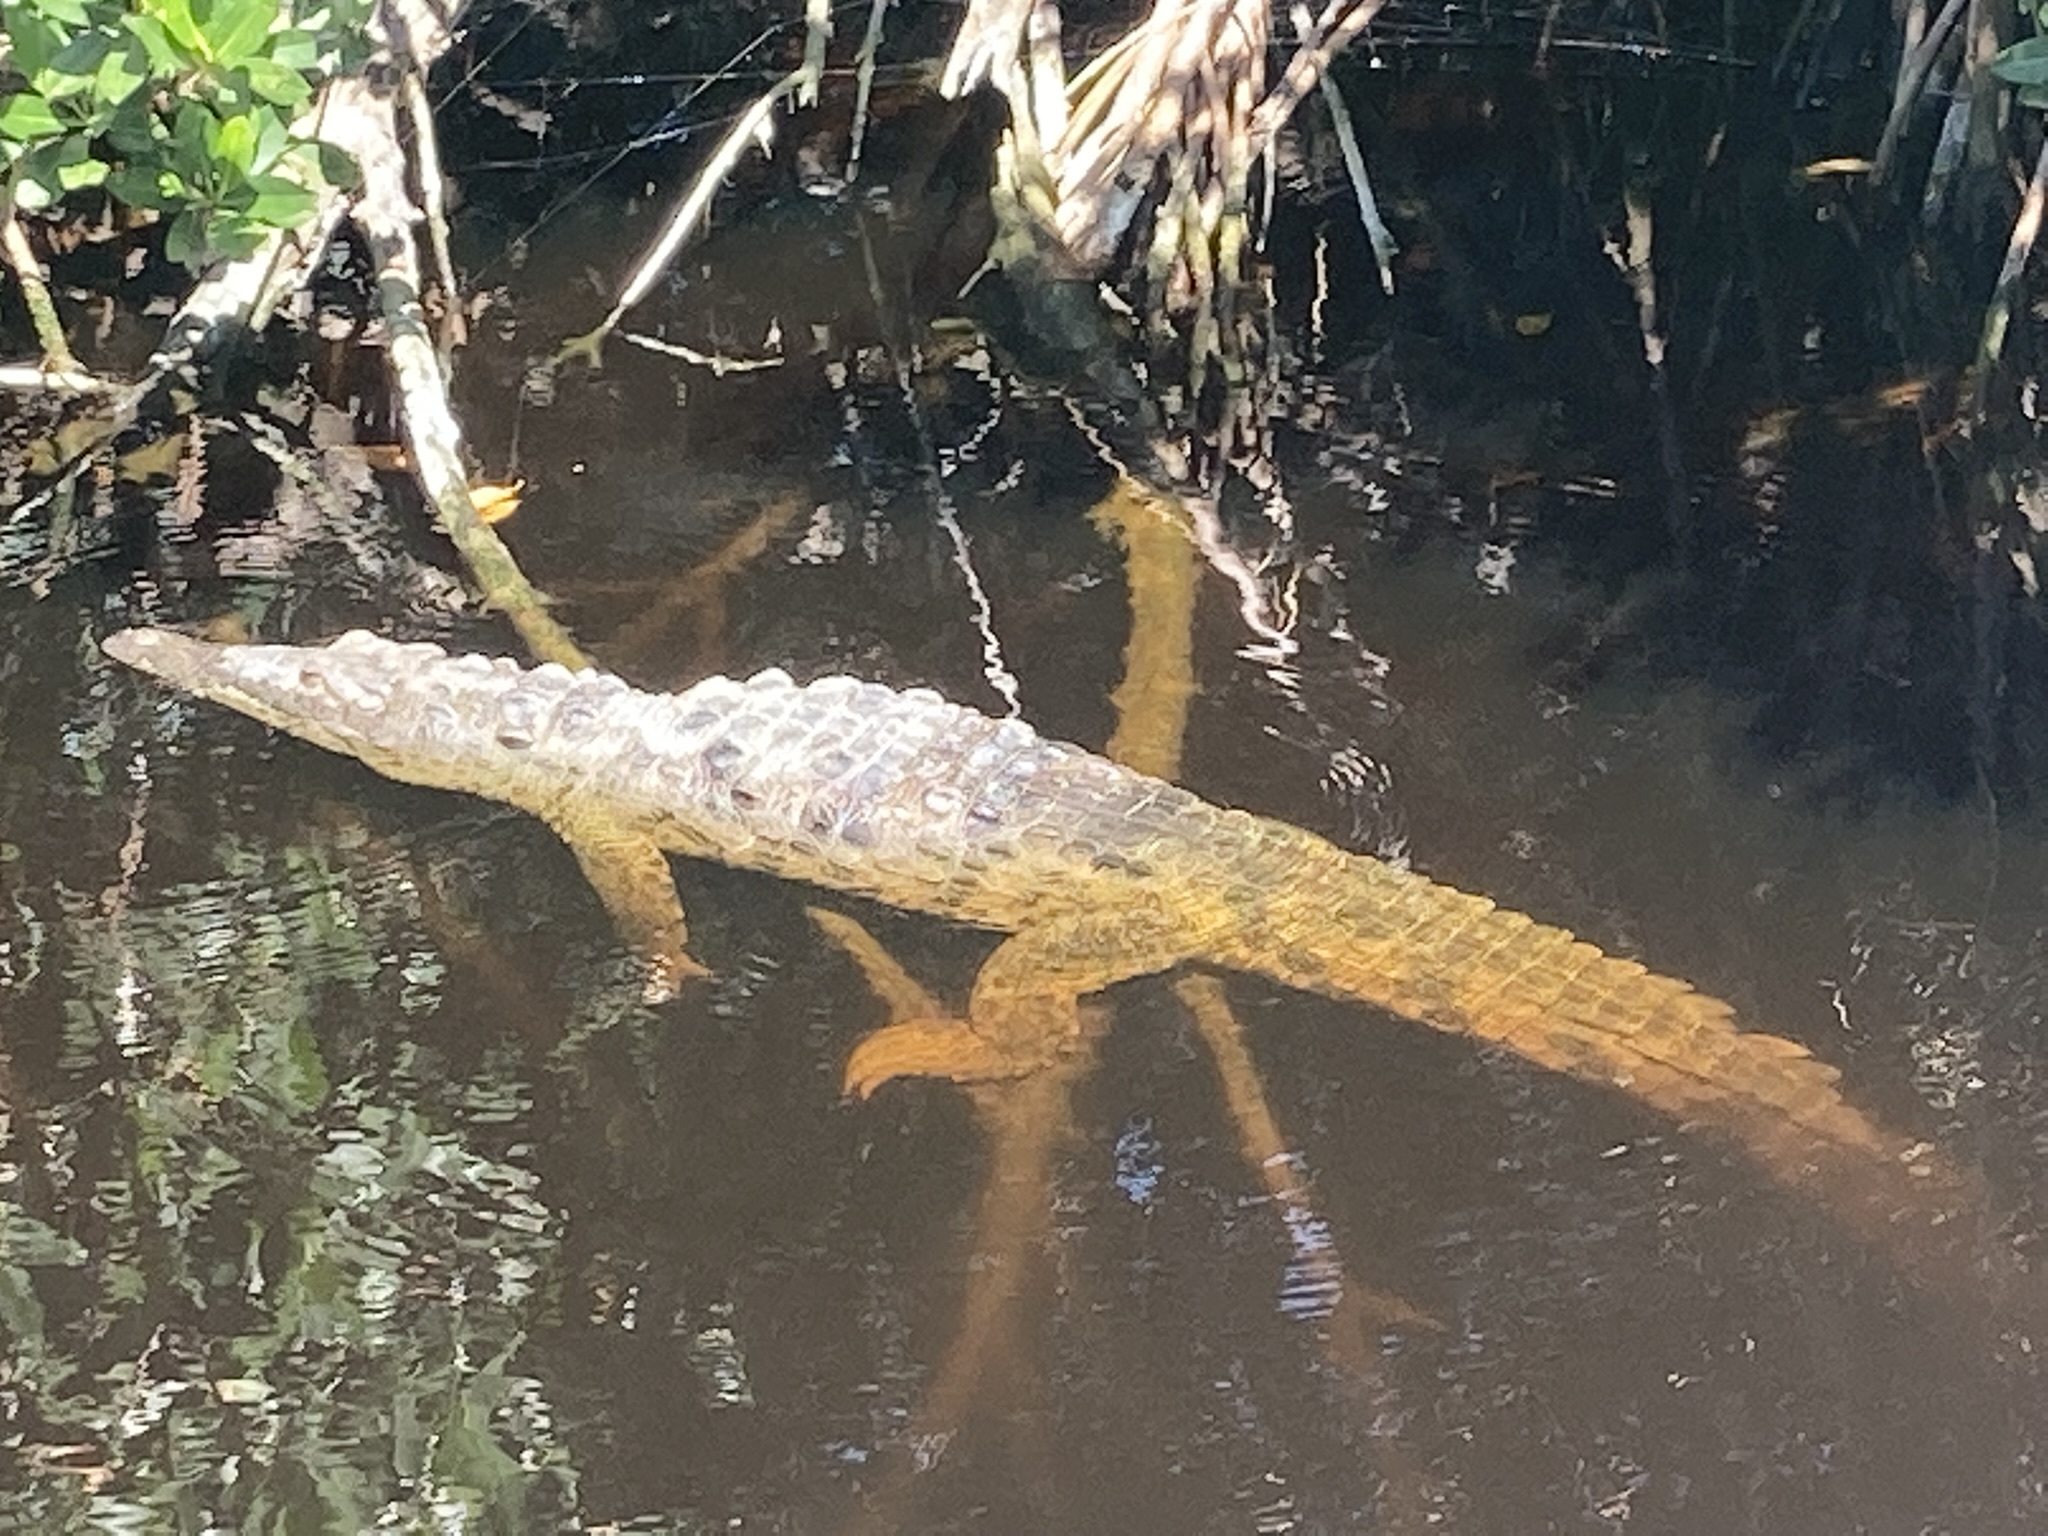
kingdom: Animalia
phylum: Chordata
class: Crocodylia
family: Crocodylidae
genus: Crocodylus
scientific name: Crocodylus acutus
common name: American crocodile
